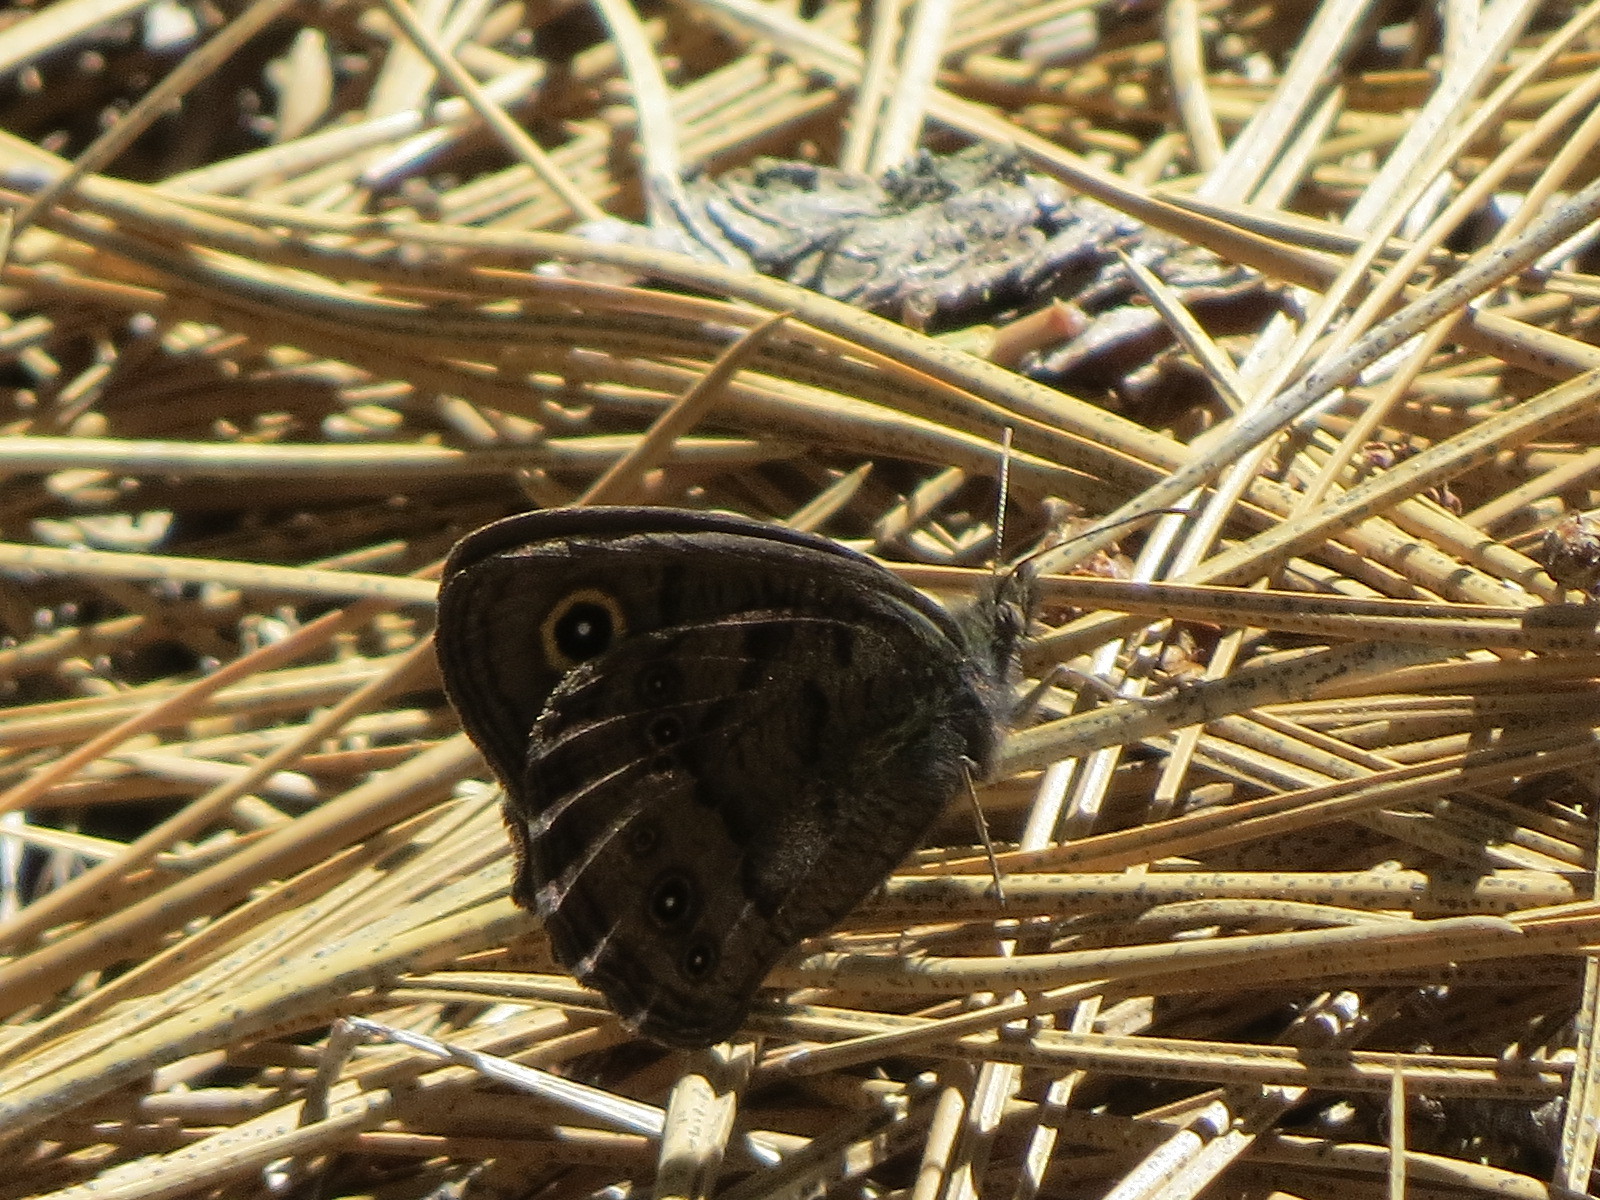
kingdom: Animalia
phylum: Arthropoda
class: Insecta
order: Lepidoptera
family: Nymphalidae
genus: Cercyonis
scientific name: Cercyonis sthenele
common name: Great basin wood-nymph
